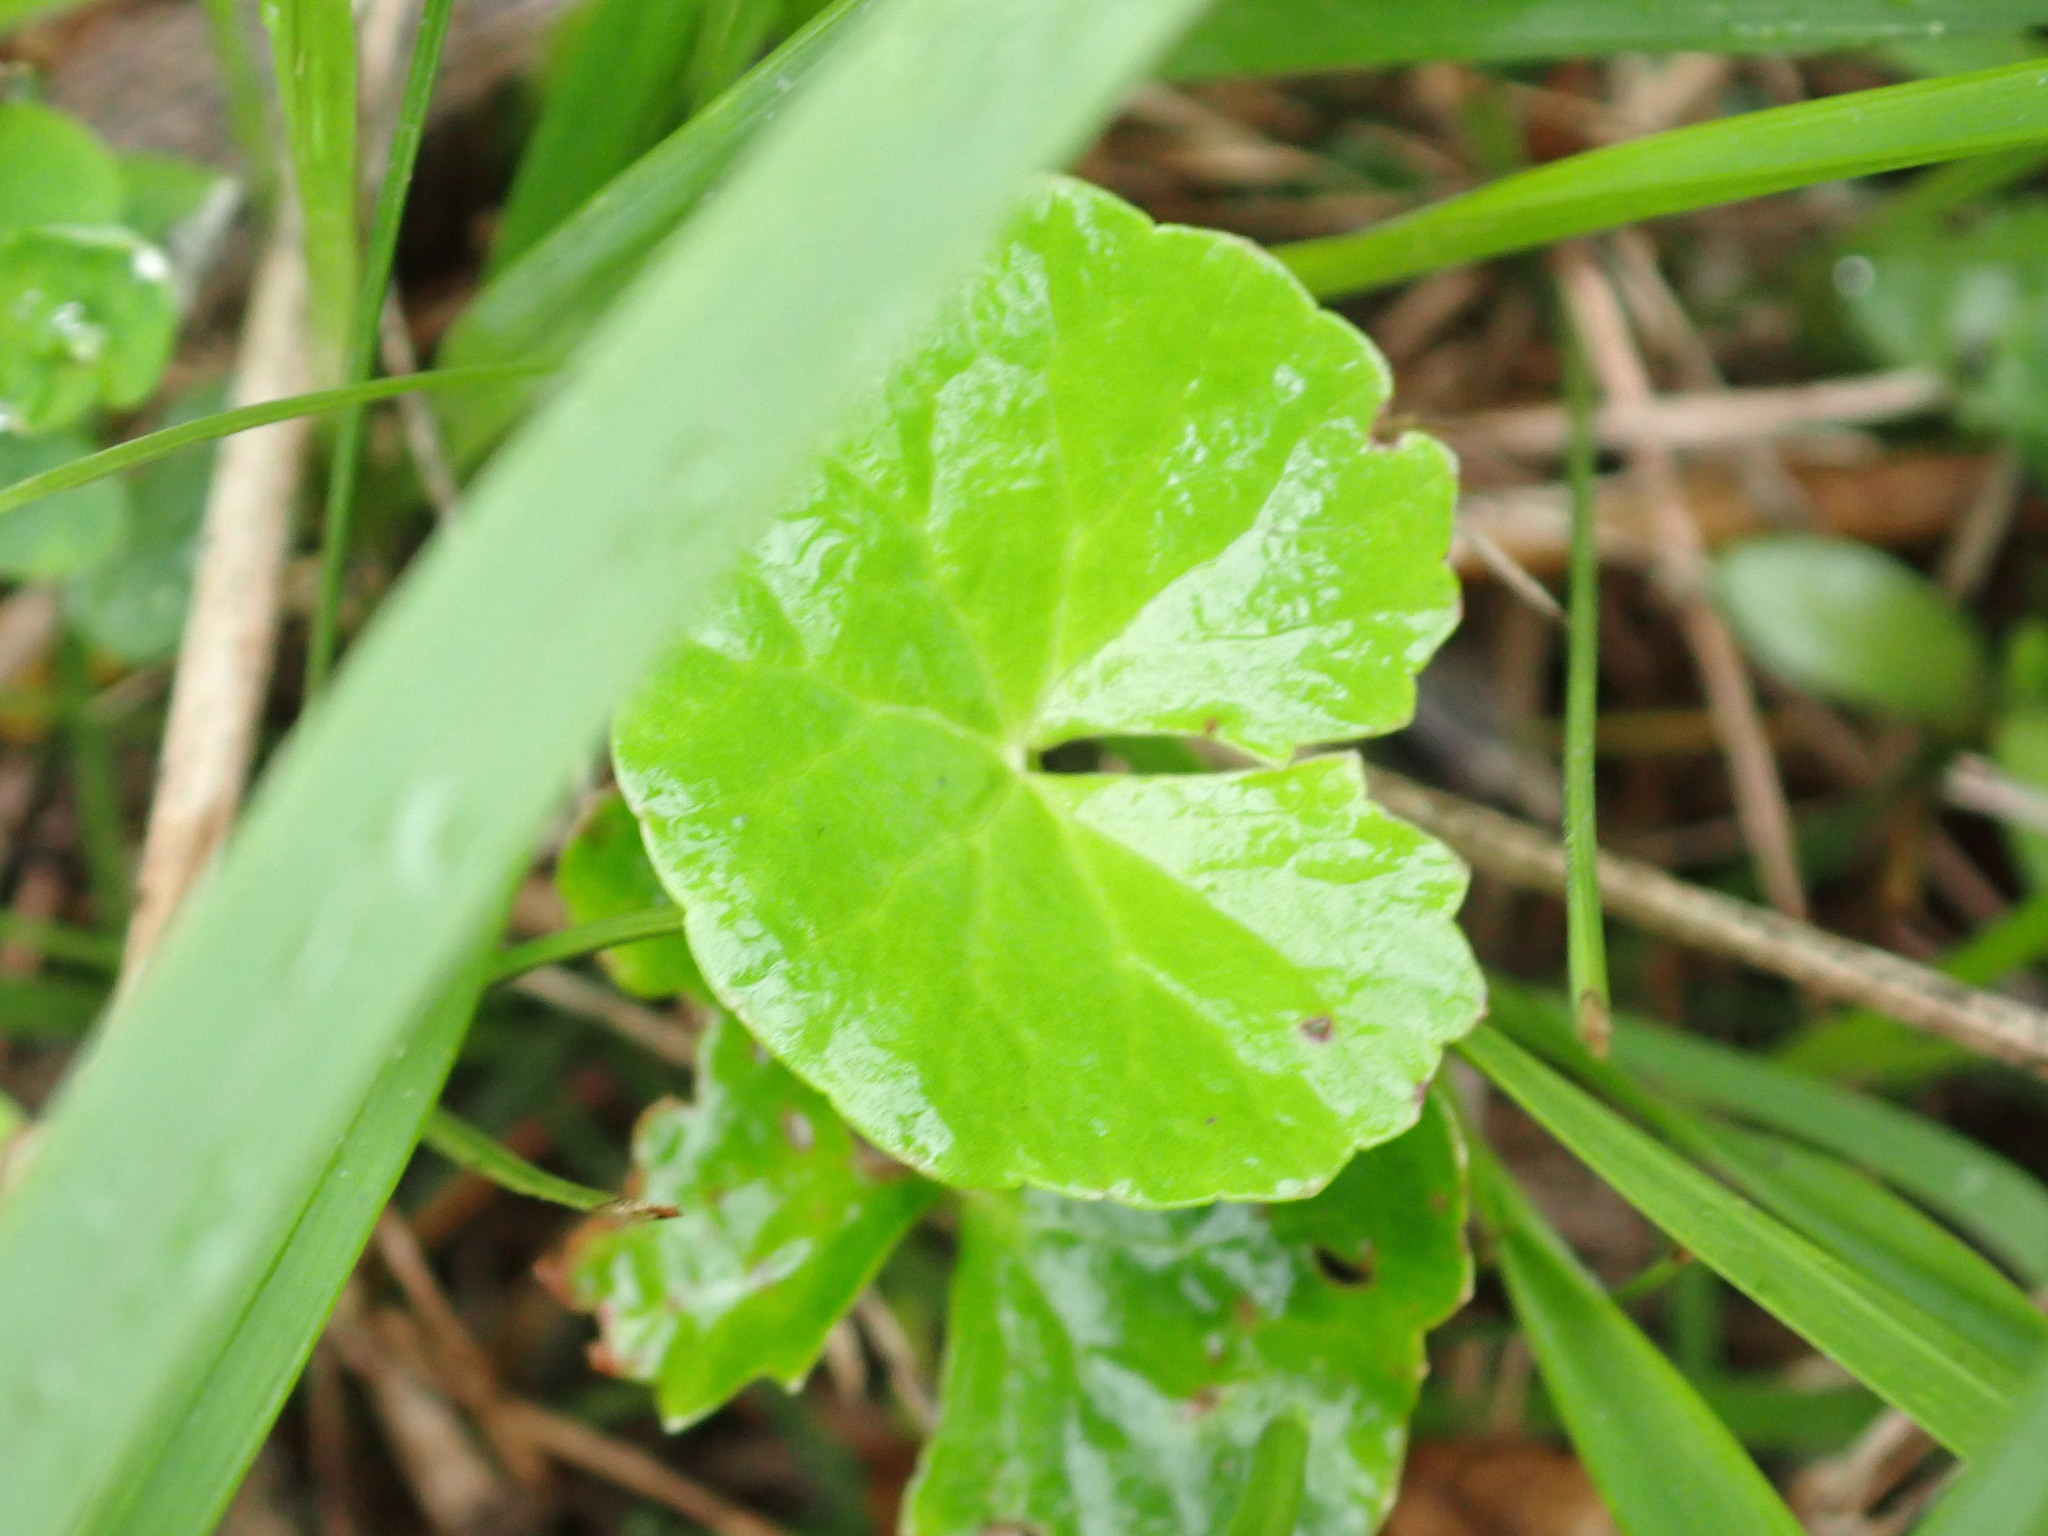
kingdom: Plantae
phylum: Tracheophyta
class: Magnoliopsida
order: Apiales
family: Apiaceae
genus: Centella
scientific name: Centella asiatica
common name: Spadeleaf
